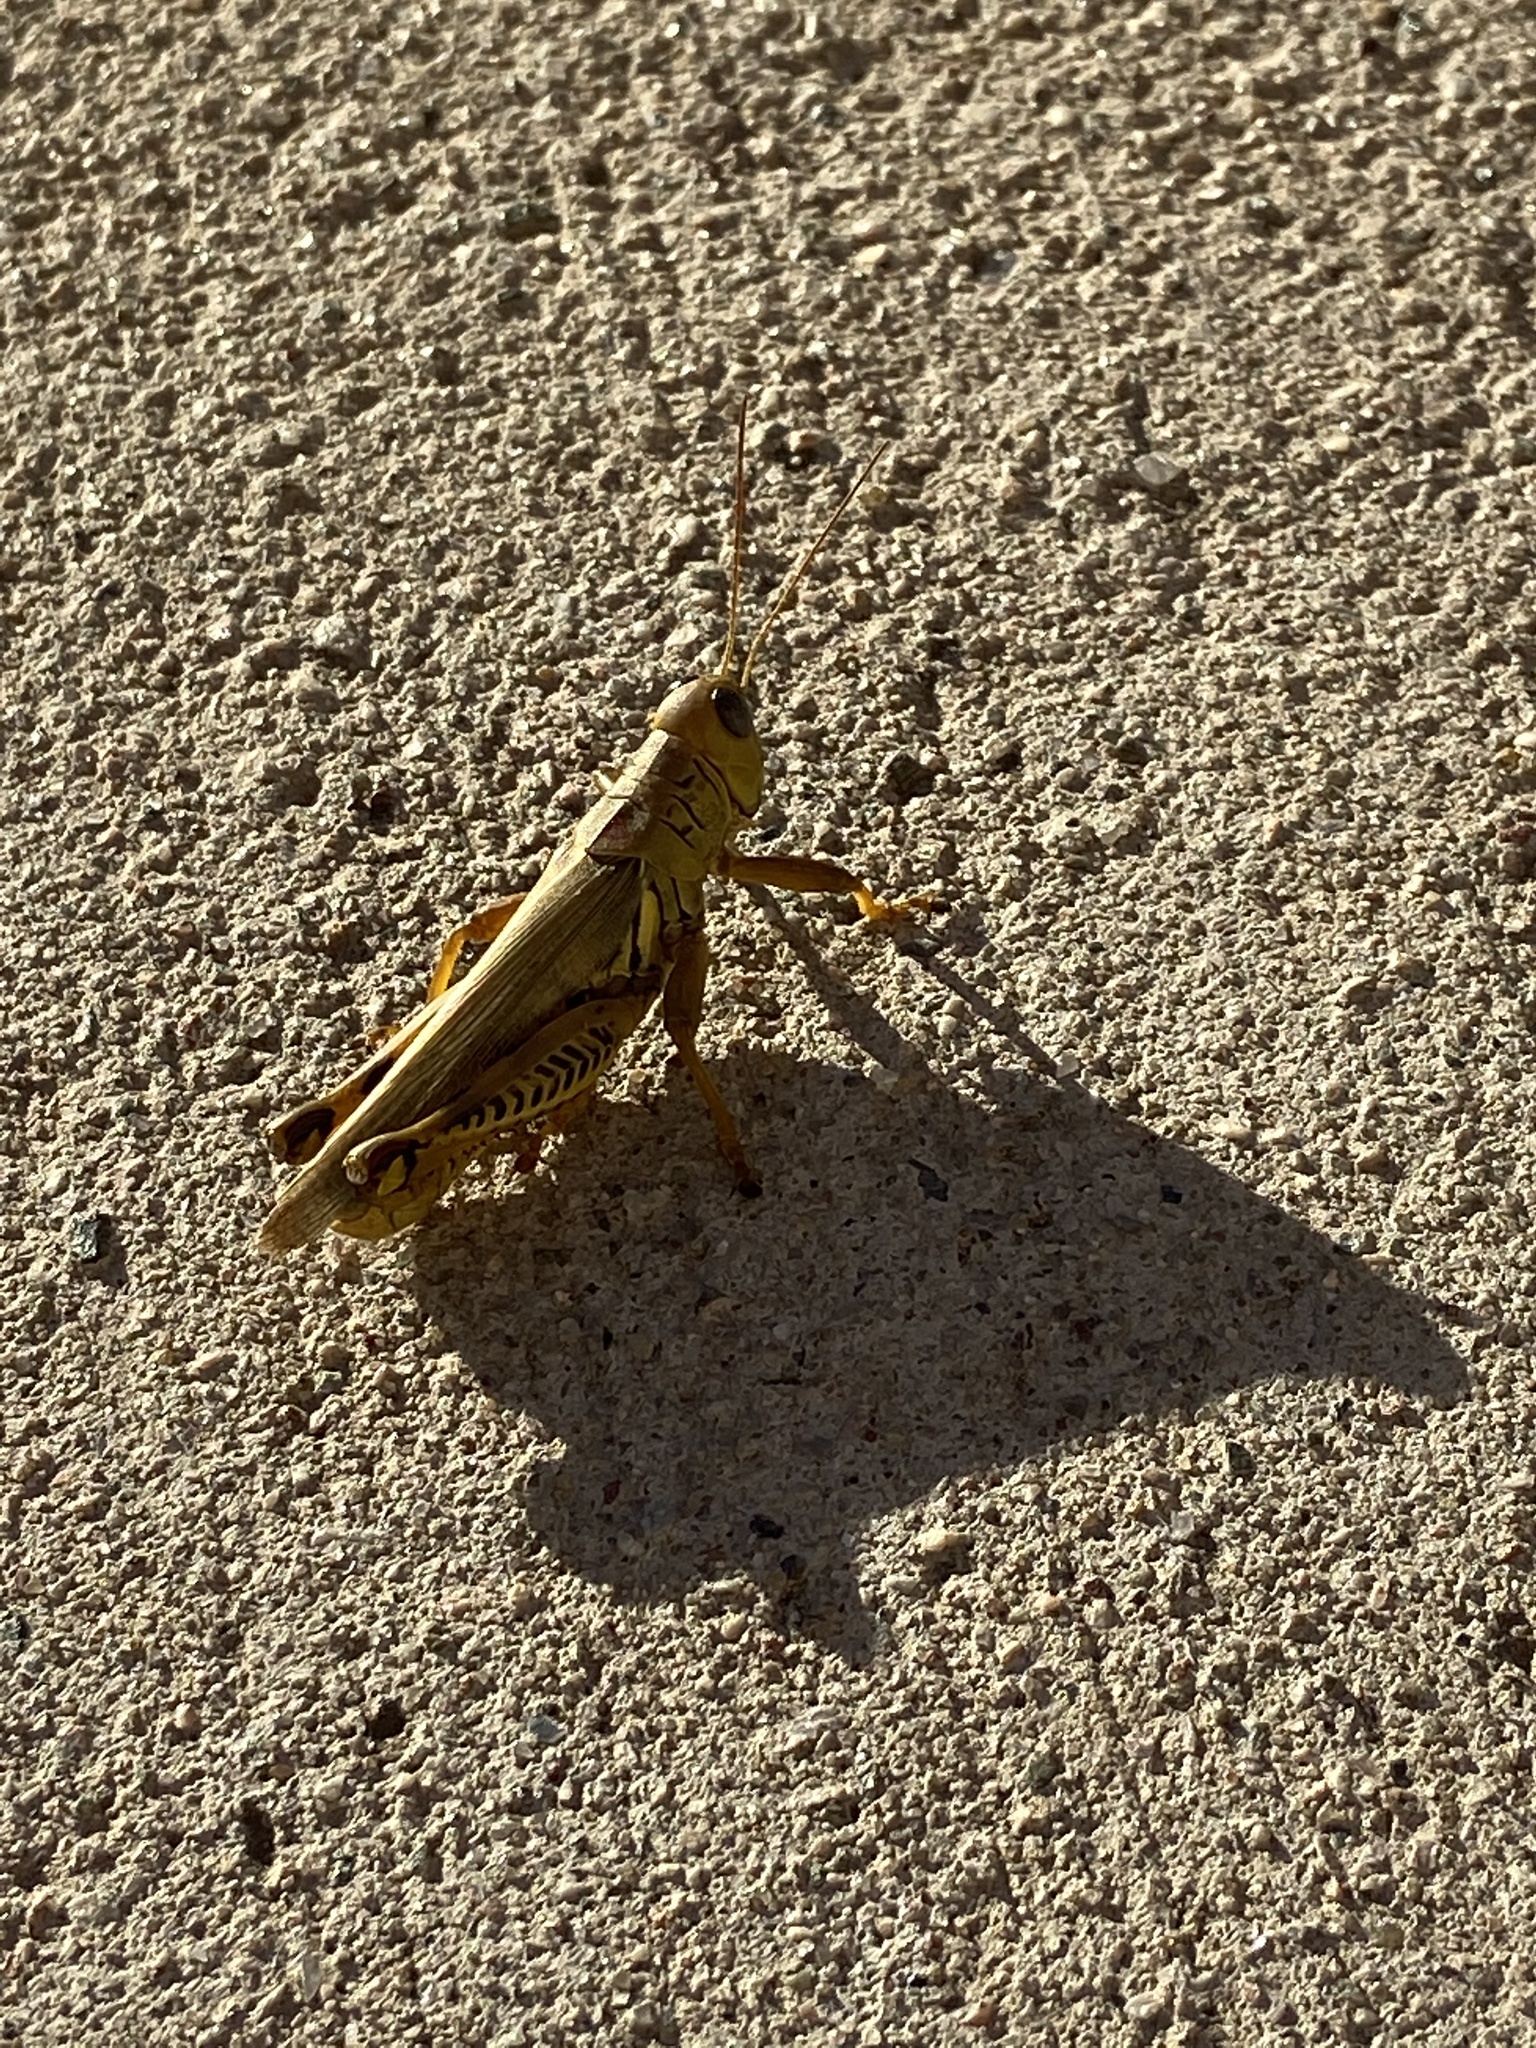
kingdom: Animalia
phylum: Arthropoda
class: Insecta
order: Orthoptera
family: Acrididae
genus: Melanoplus
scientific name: Melanoplus differentialis
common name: Differential grasshopper
